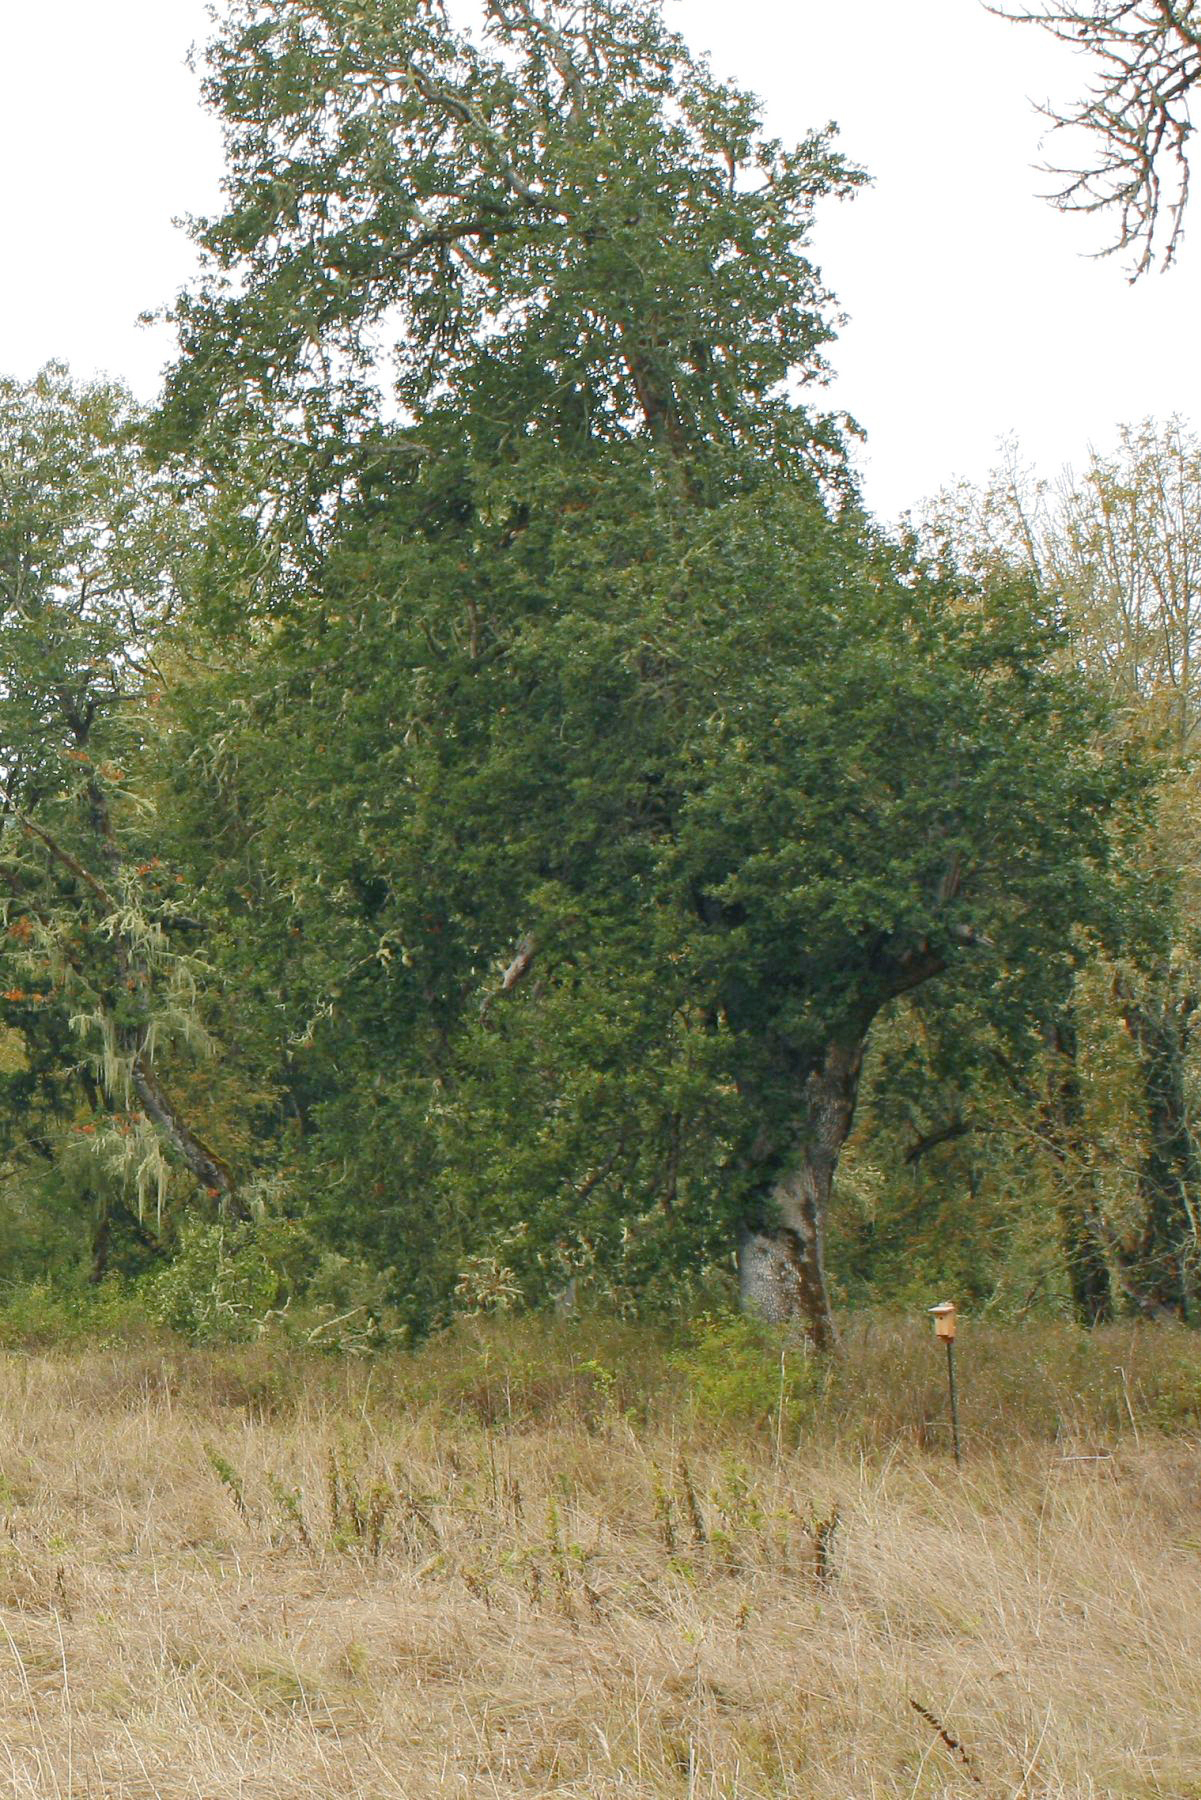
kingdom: Plantae
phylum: Tracheophyta
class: Magnoliopsida
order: Fagales
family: Fagaceae
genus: Quercus
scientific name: Quercus garryana
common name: Garry oak
